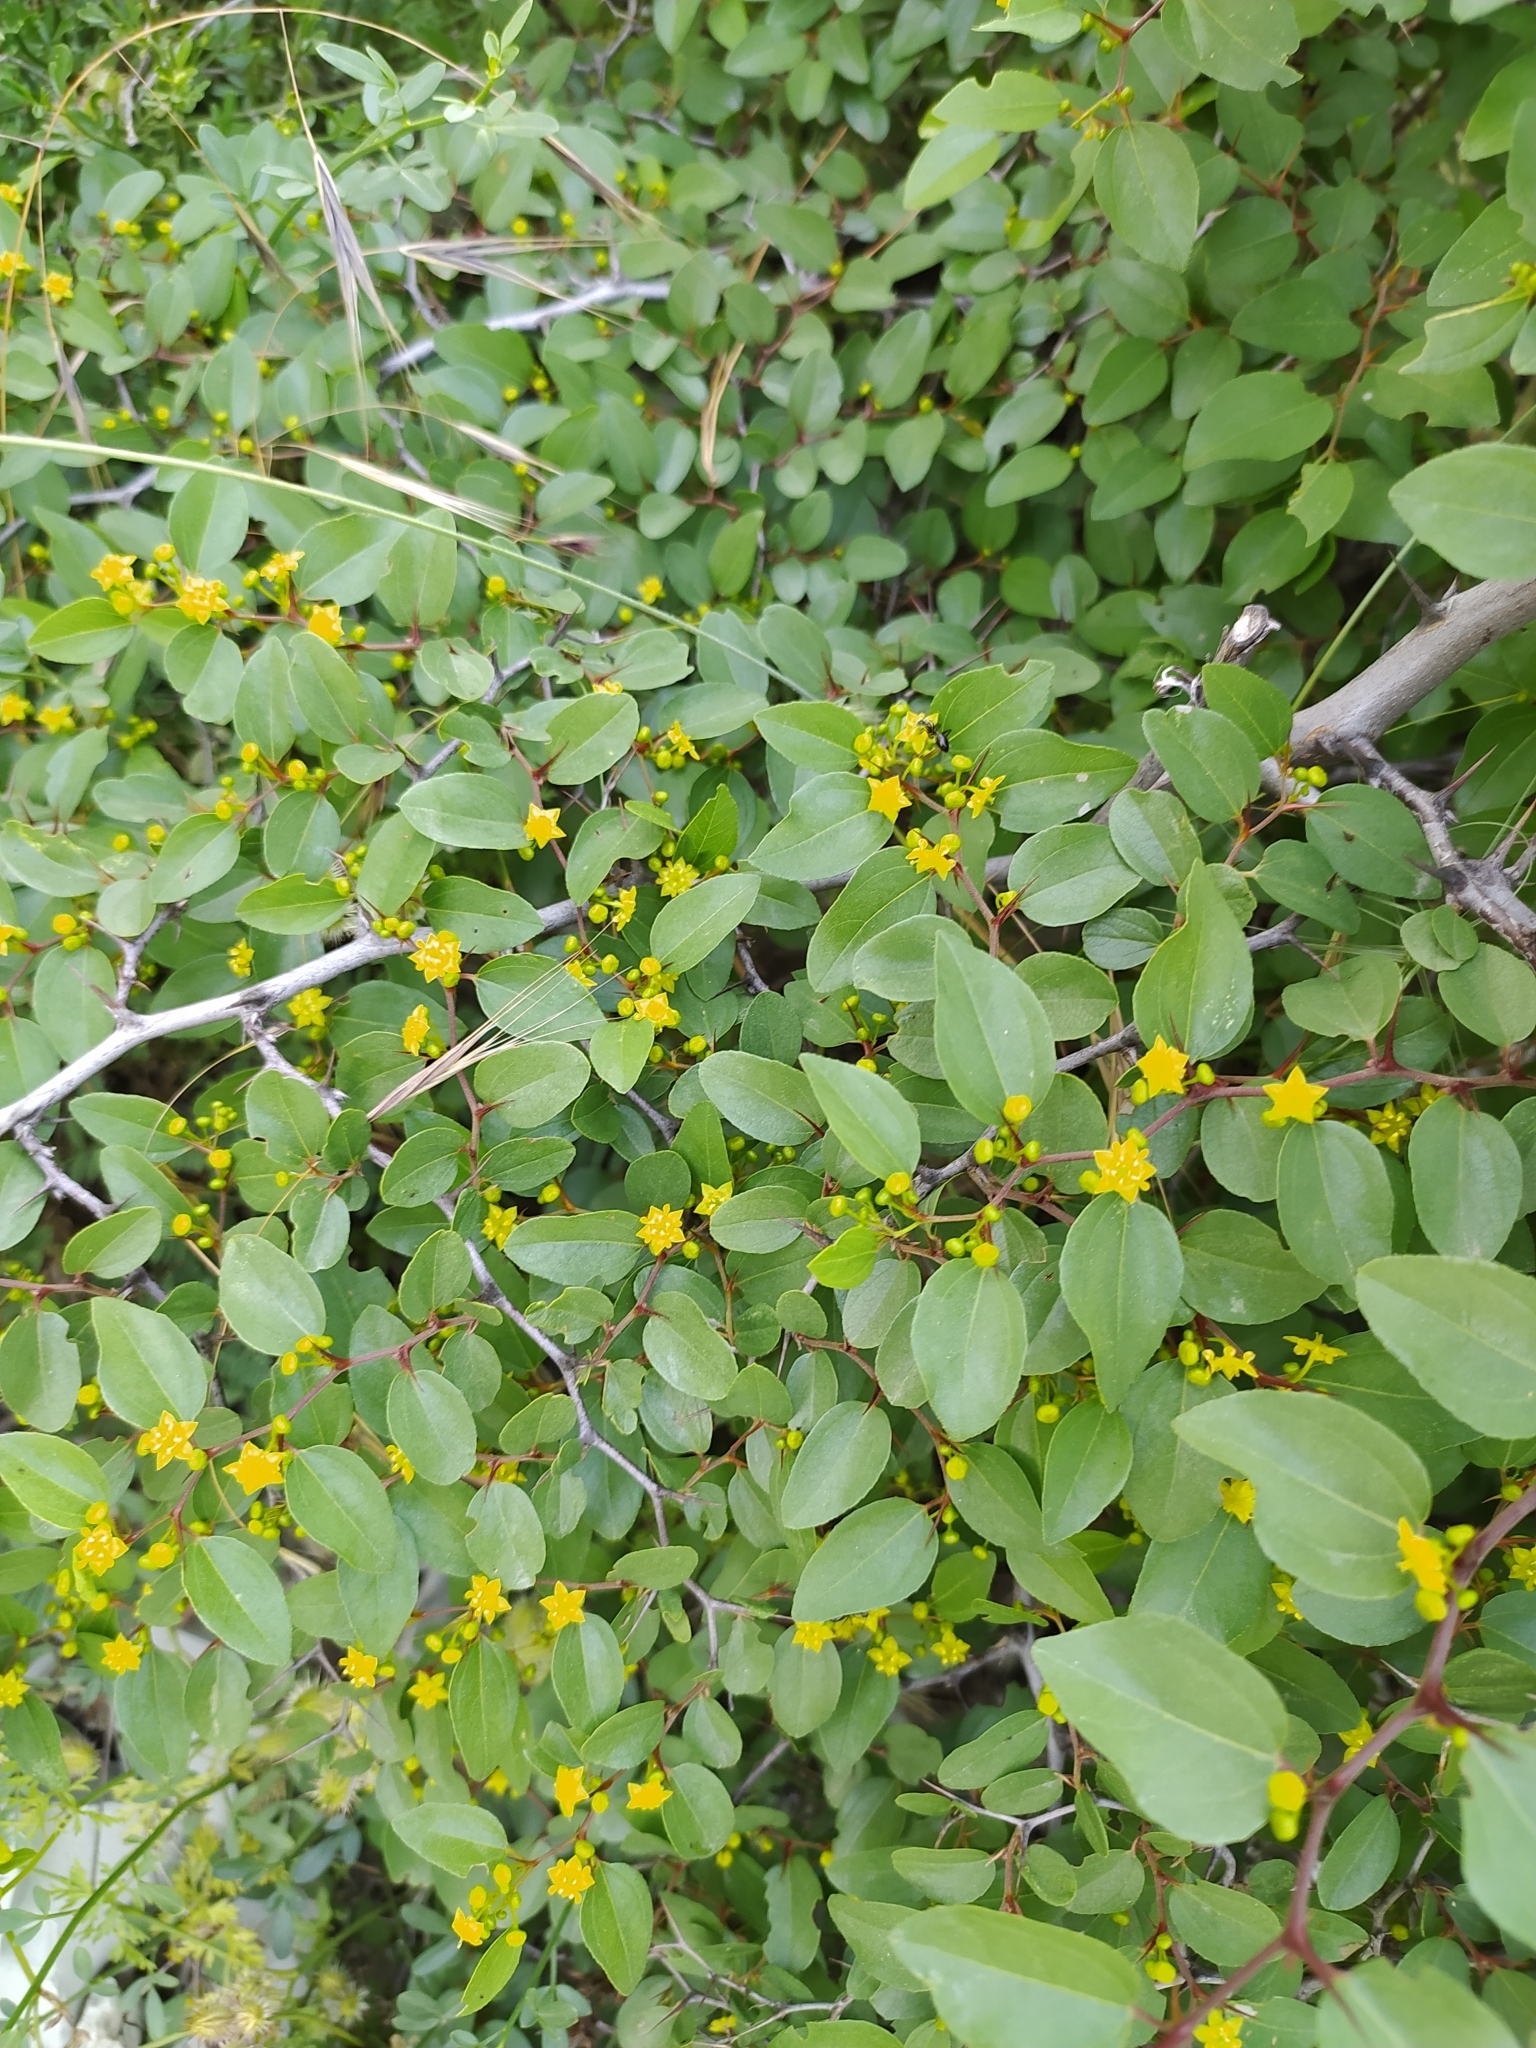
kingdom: Plantae
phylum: Tracheophyta
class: Magnoliopsida
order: Rosales
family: Rhamnaceae
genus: Paliurus
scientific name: Paliurus spina-christi
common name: Jeruselem thorn
